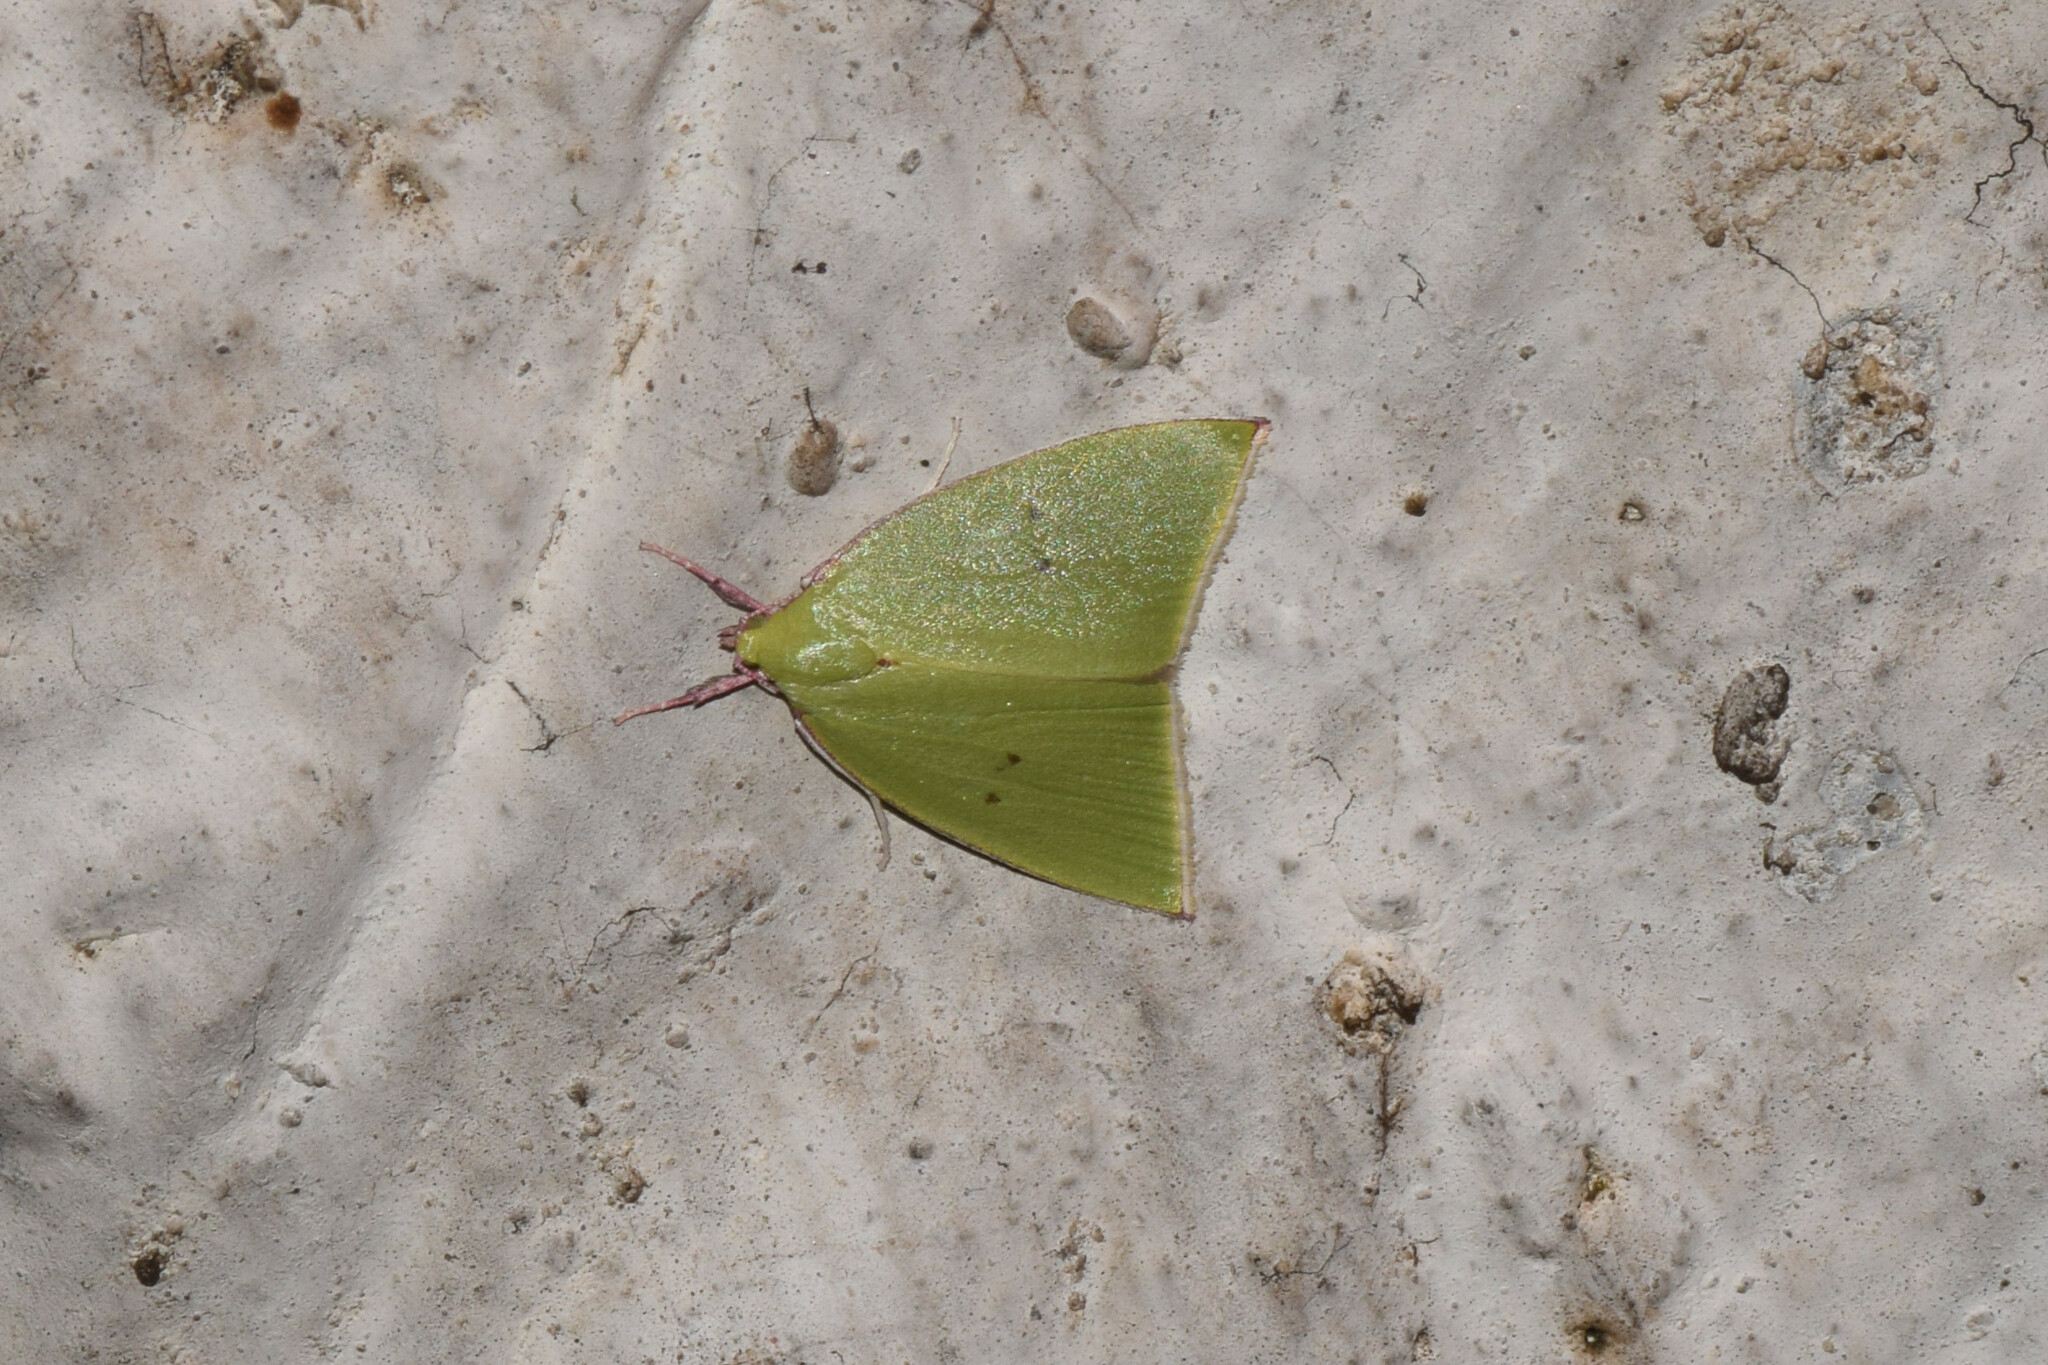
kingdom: Animalia
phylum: Arthropoda
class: Insecta
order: Lepidoptera
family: Nolidae
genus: Tyana
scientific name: Tyana falcata
